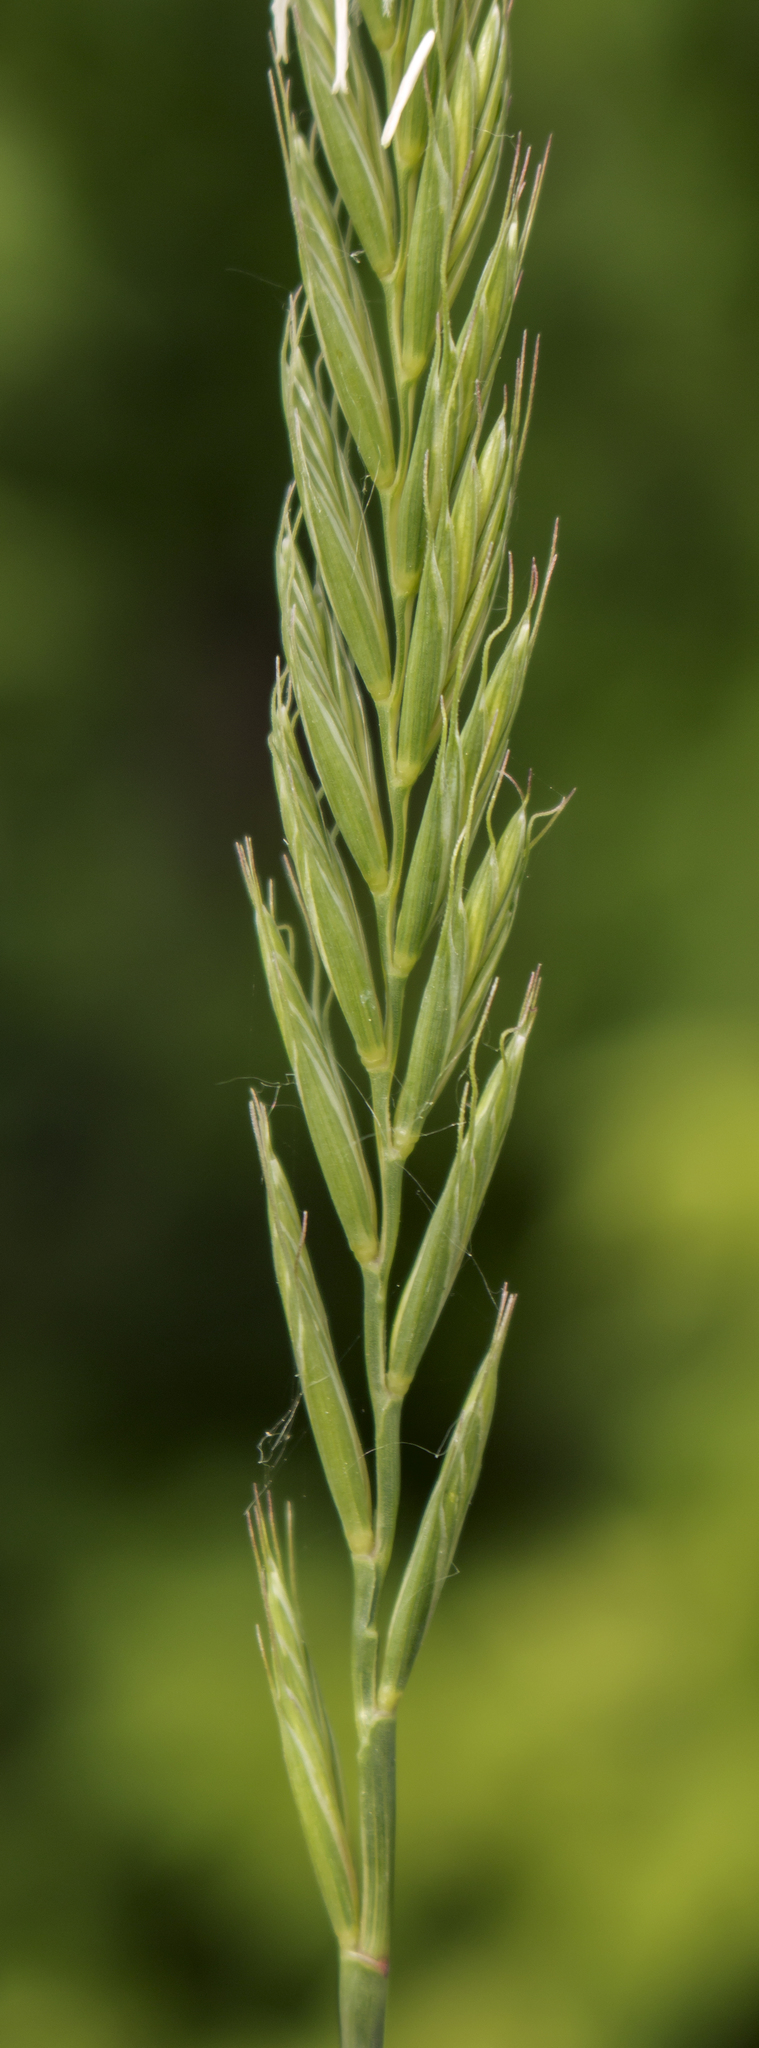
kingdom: Plantae
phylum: Tracheophyta
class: Liliopsida
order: Poales
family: Poaceae
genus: Lolium
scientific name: Lolium perenne
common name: Perennial ryegrass
